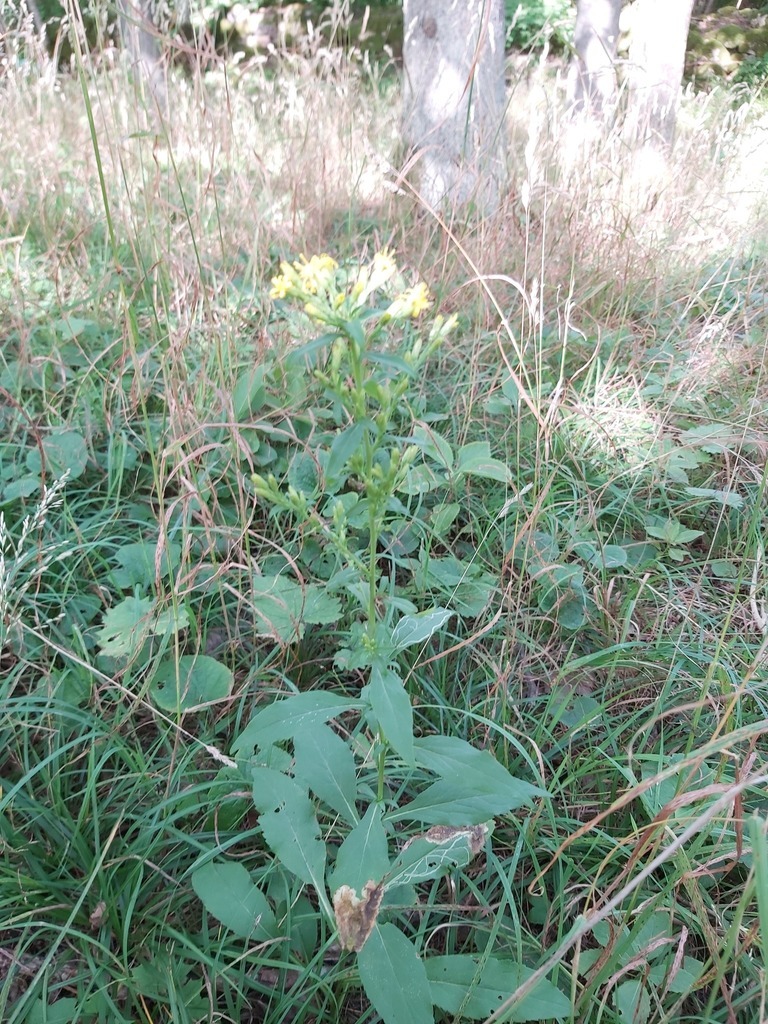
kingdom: Animalia
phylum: Arthropoda
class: Insecta
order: Diptera
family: Agromyzidae
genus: Nemorimyza
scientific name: Nemorimyza posticata
